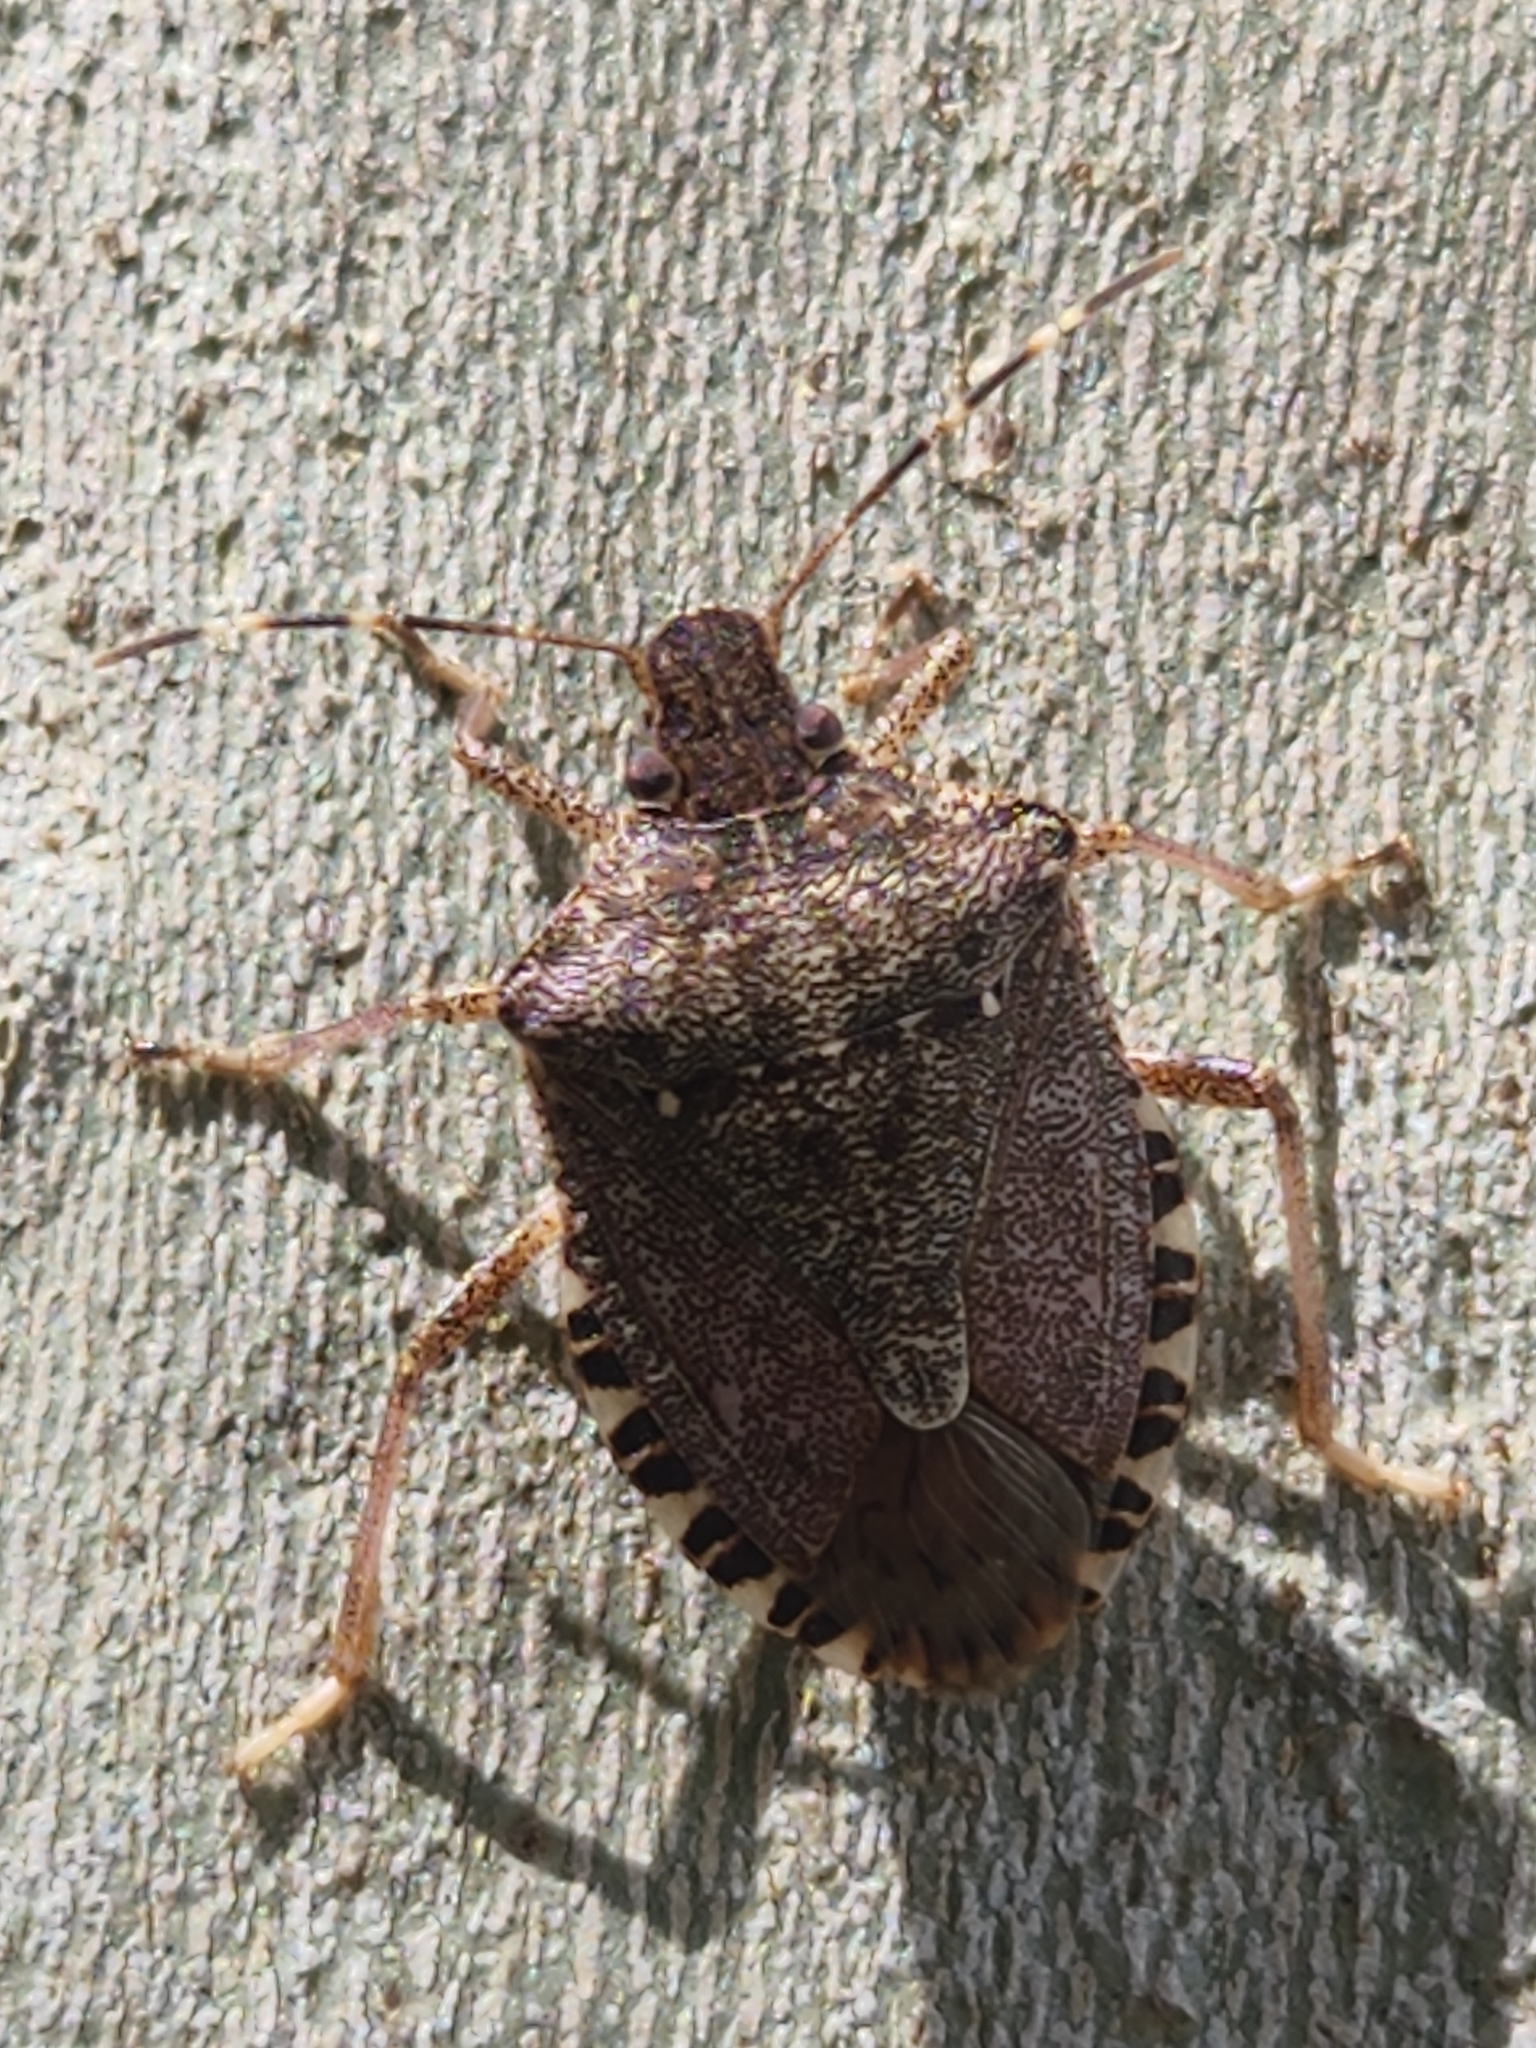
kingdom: Animalia
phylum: Arthropoda
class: Insecta
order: Hemiptera
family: Pentatomidae
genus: Halyomorpha
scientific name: Halyomorpha halys
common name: Brown marmorated stink bug
